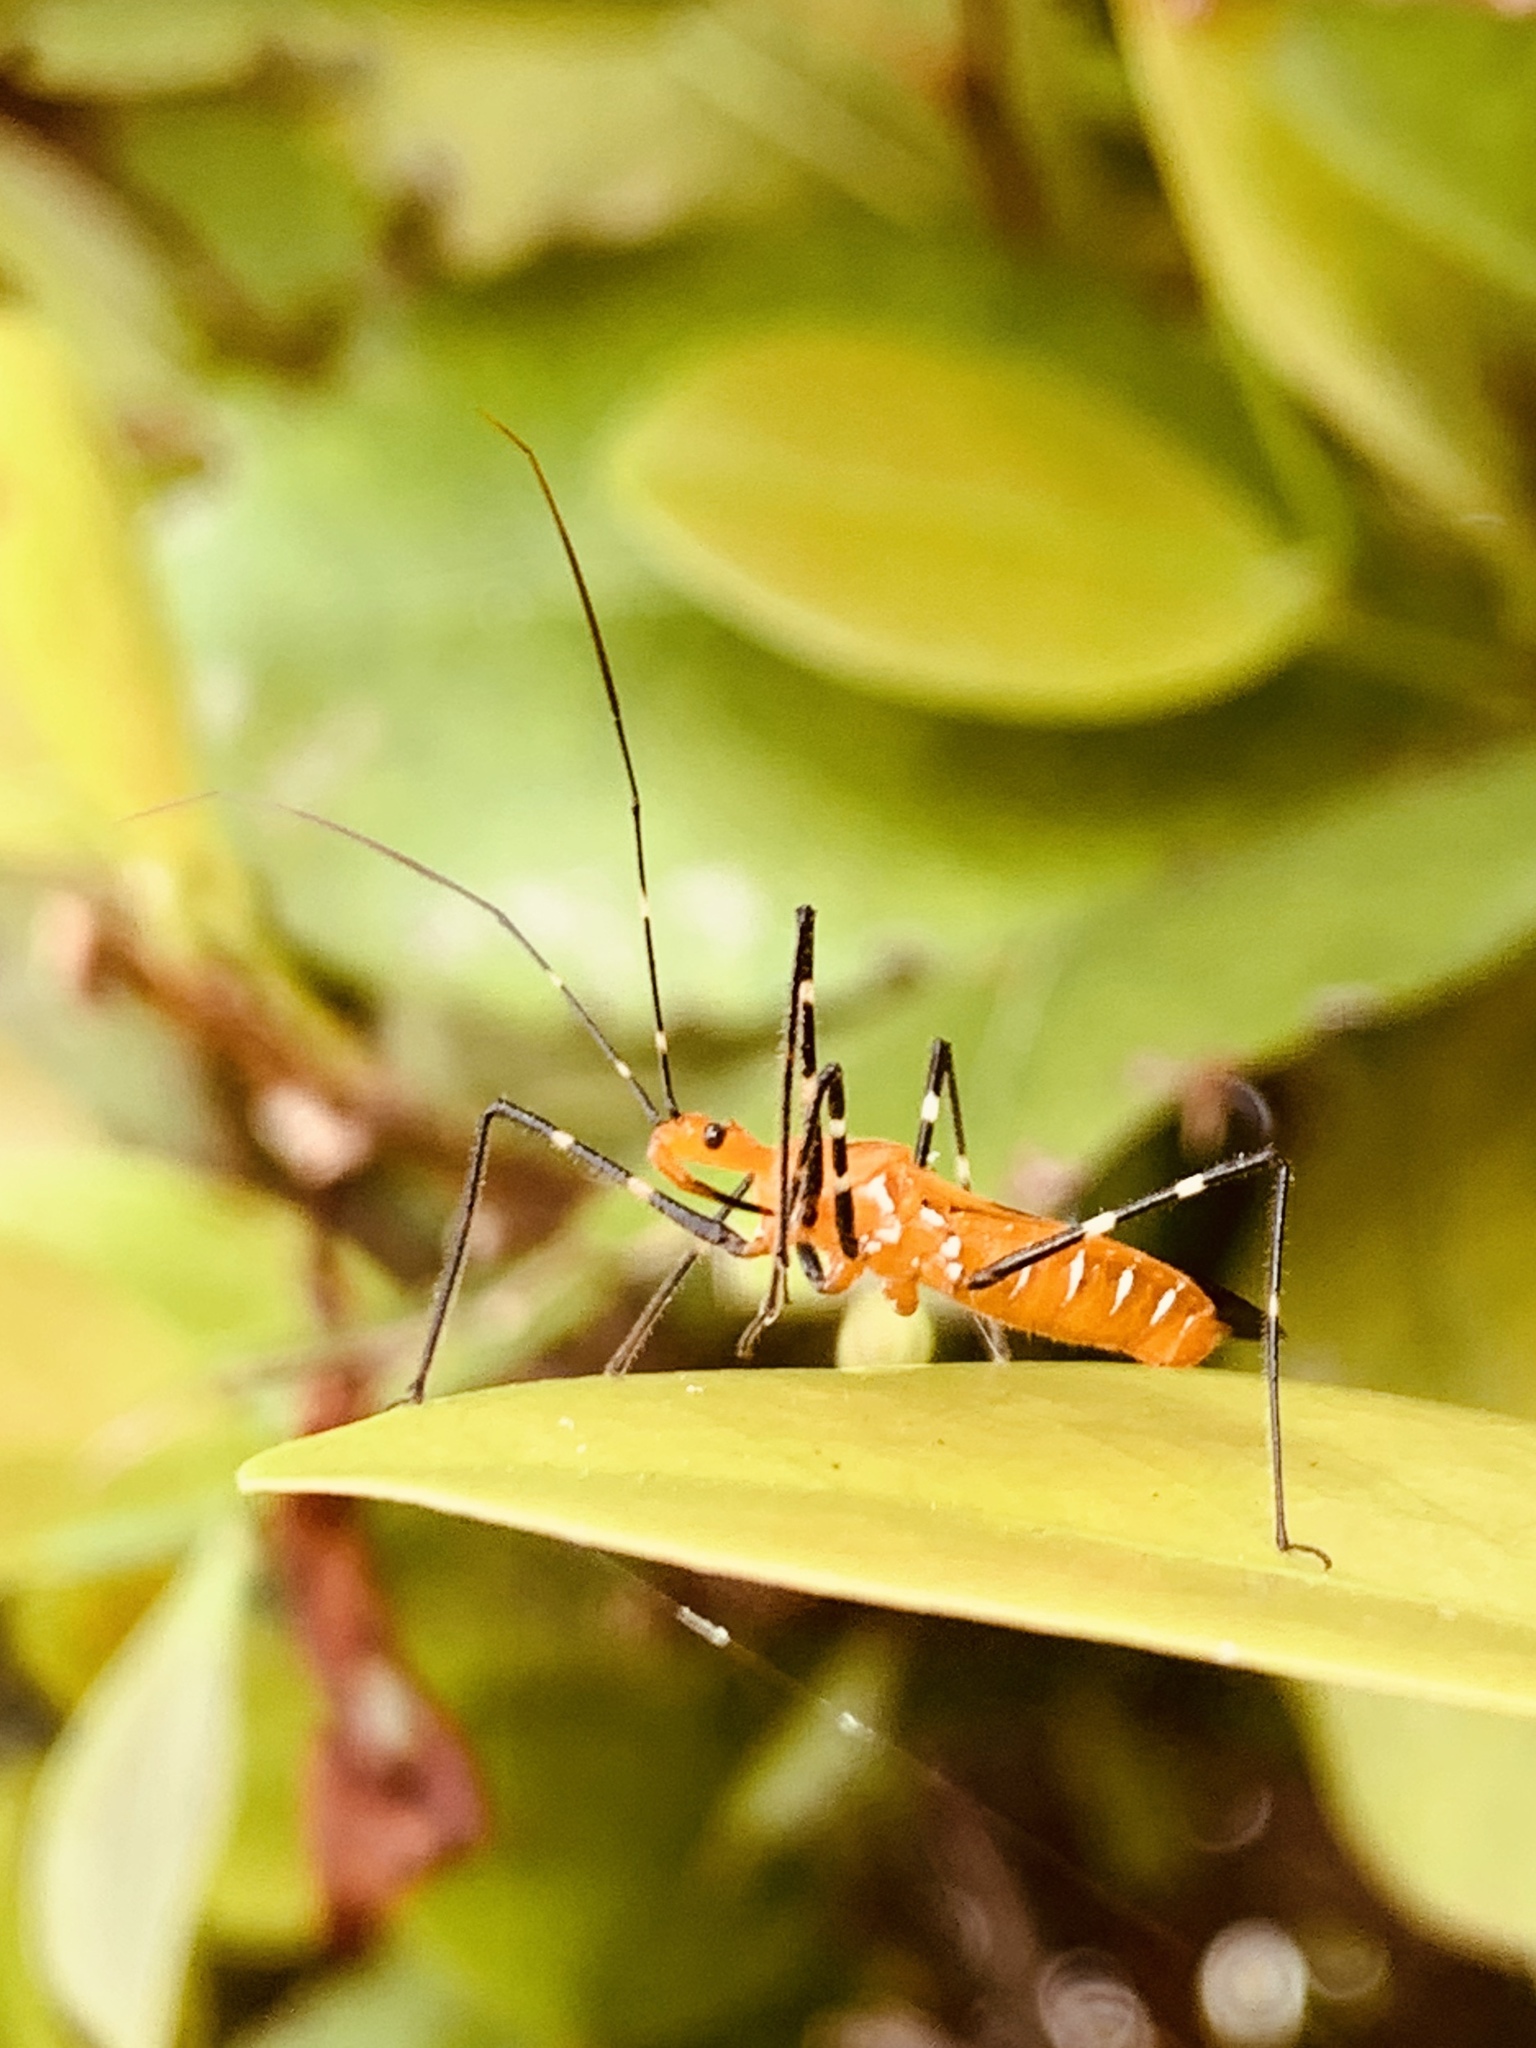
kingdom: Animalia
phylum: Arthropoda
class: Insecta
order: Hemiptera
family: Reduviidae
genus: Zelus
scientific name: Zelus longipes
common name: Milkweed assassin bug
